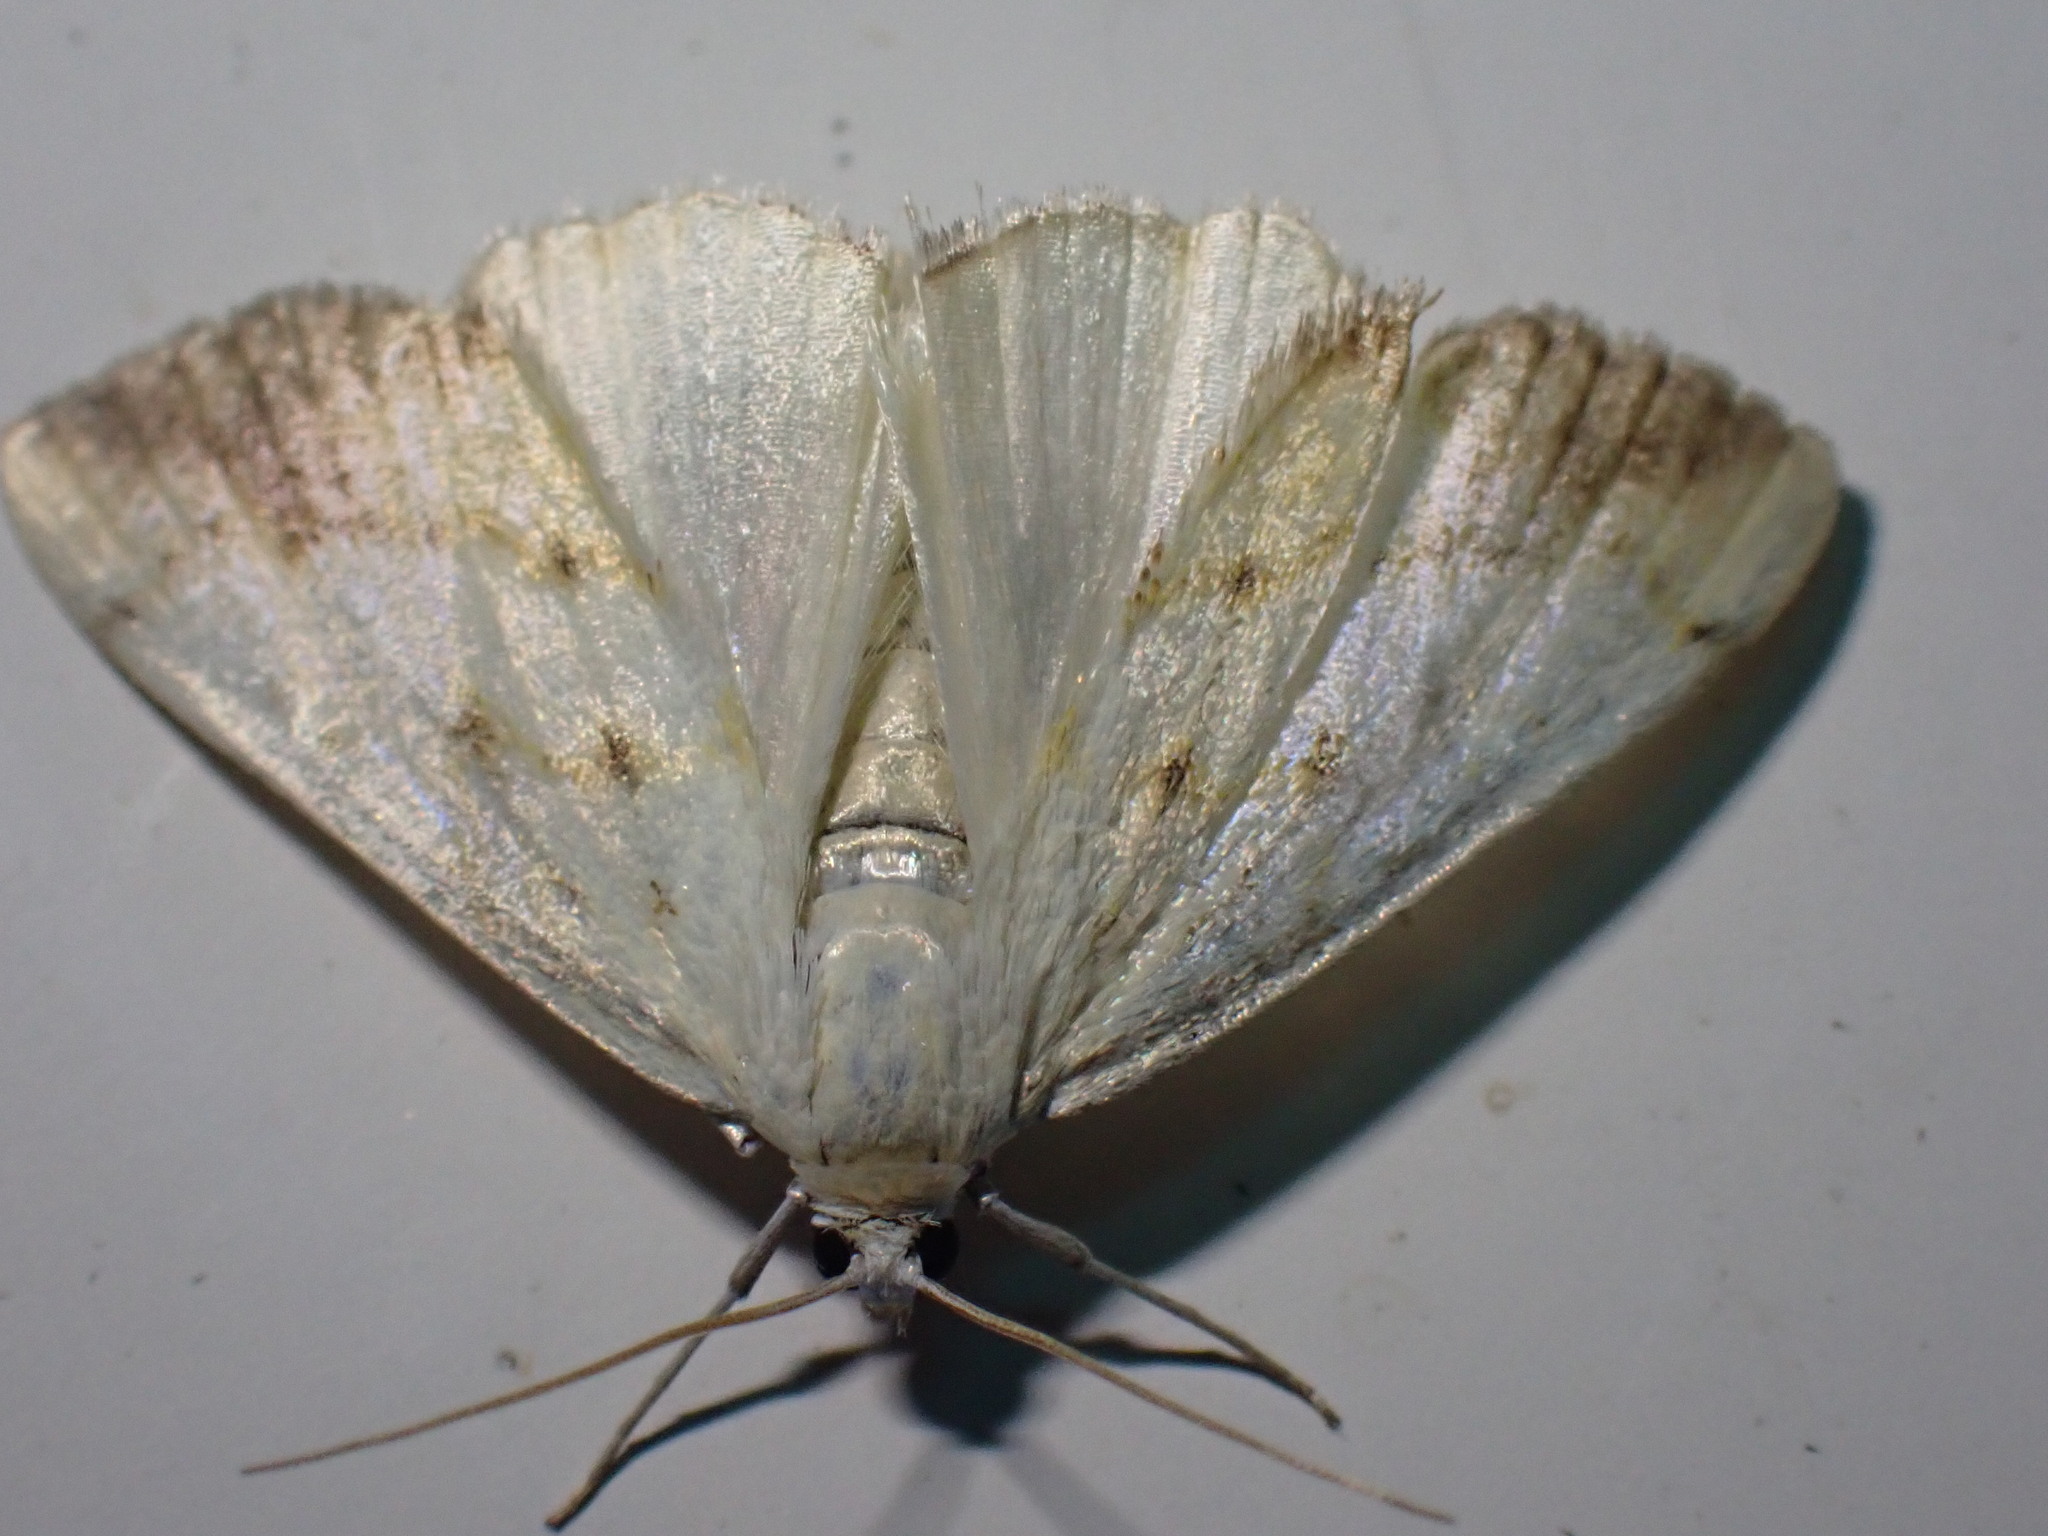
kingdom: Animalia
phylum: Arthropoda
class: Insecta
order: Lepidoptera
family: Crambidae
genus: Evergestis
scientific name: Evergestis extimalis
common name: Marbled yellow pearl
